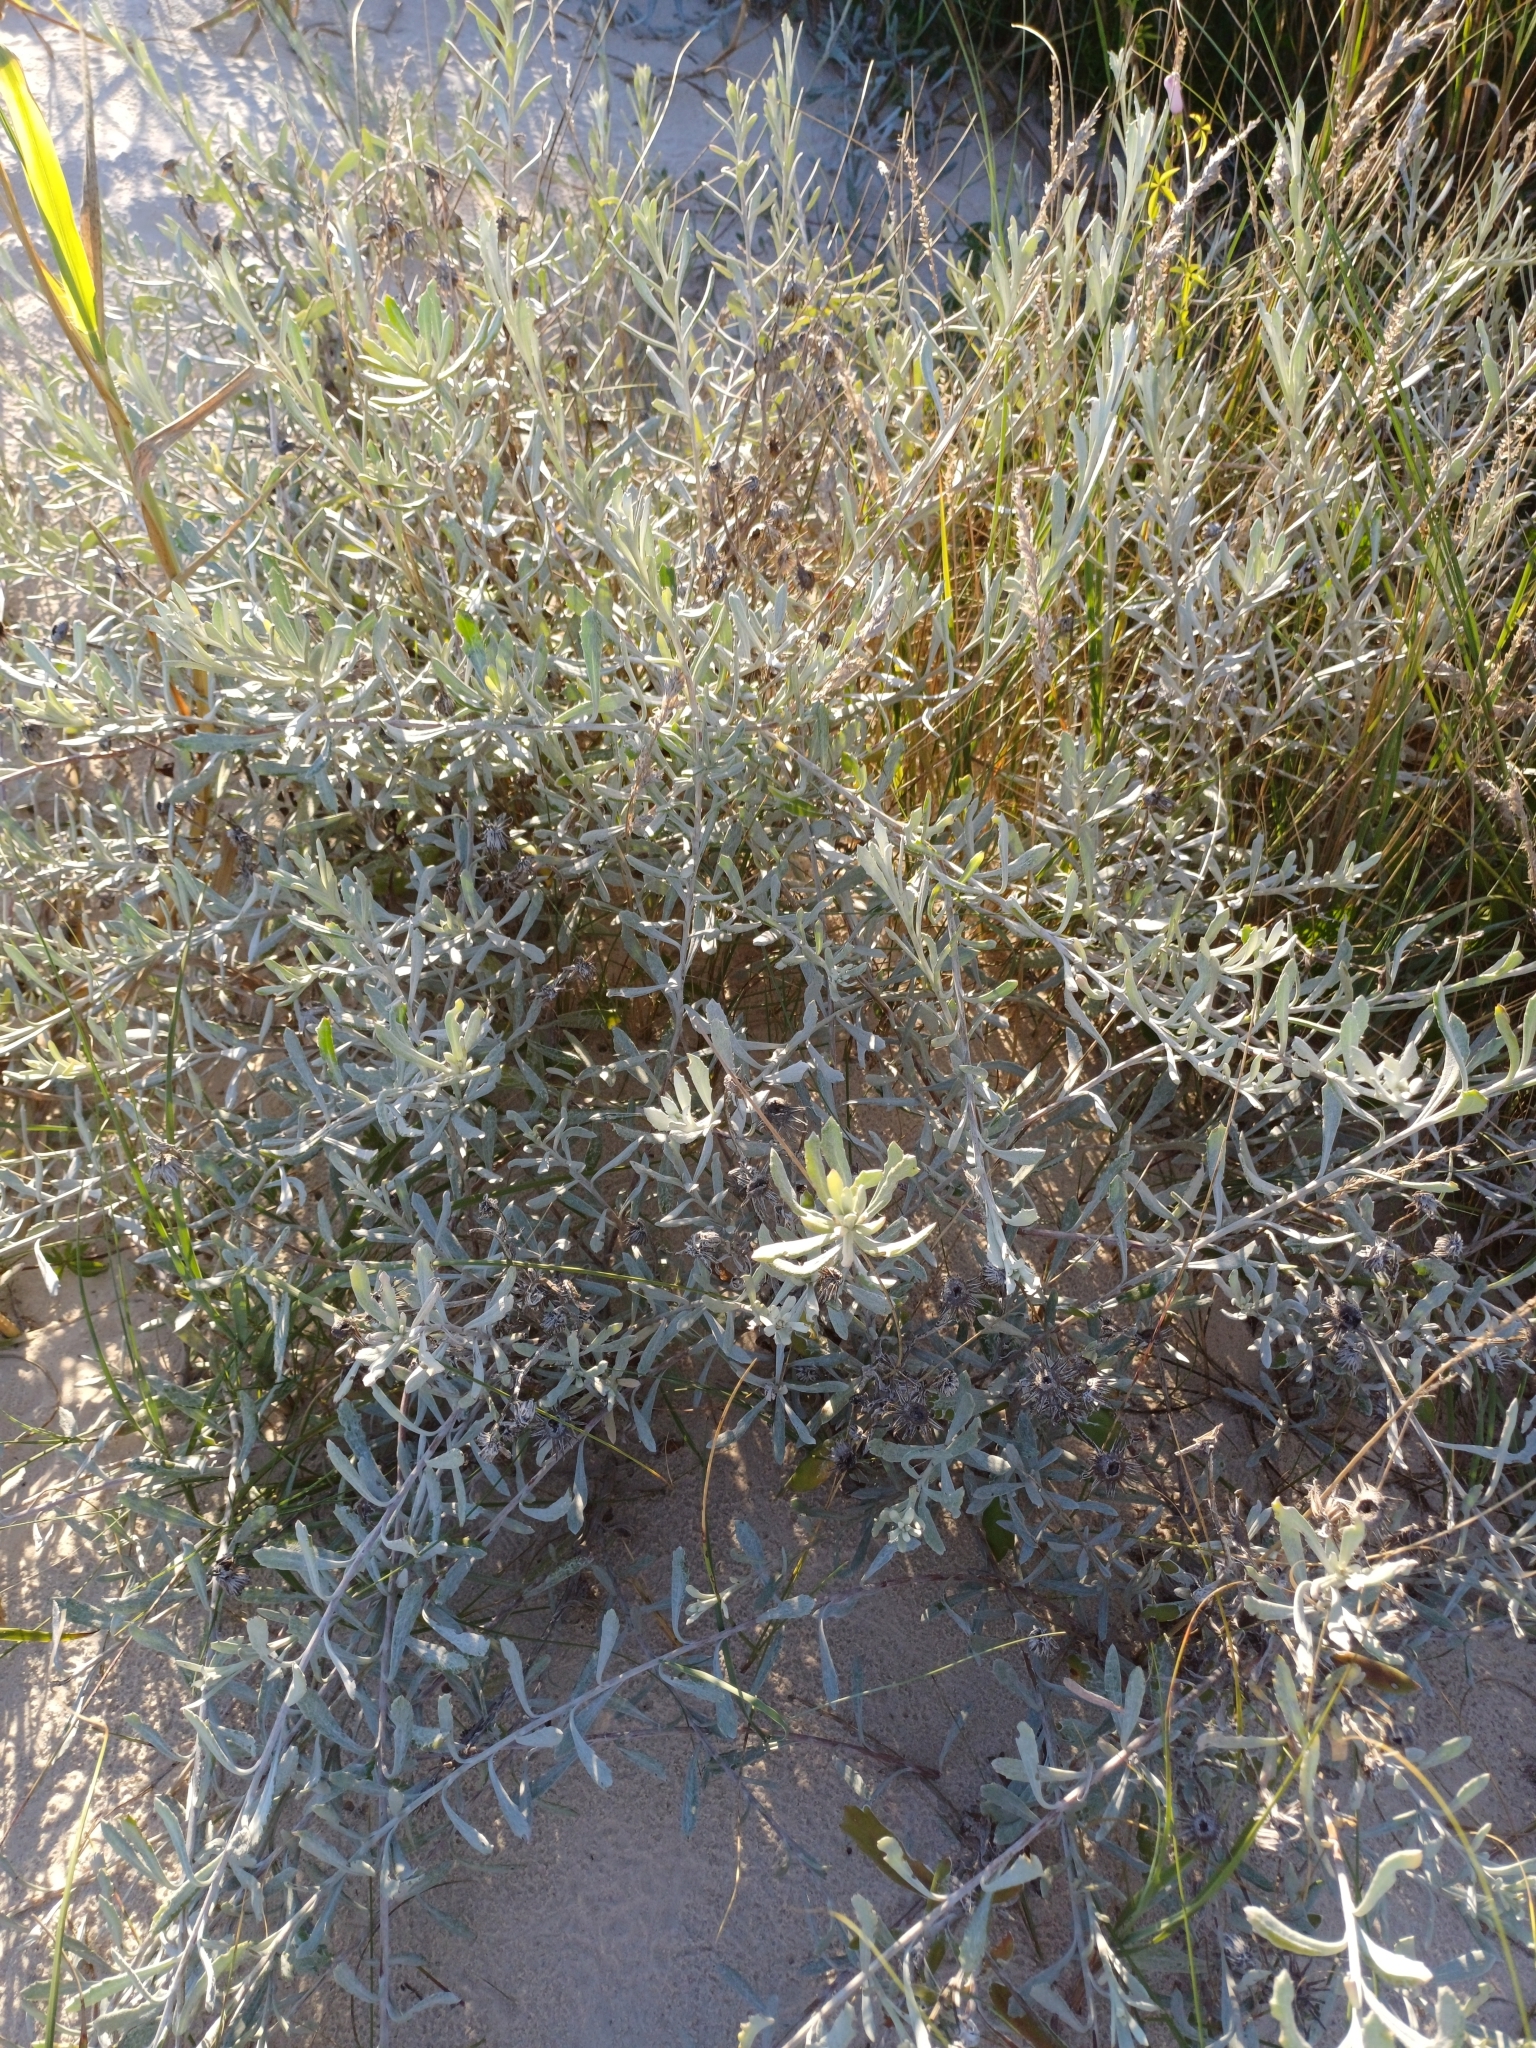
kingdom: Plantae
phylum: Tracheophyta
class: Magnoliopsida
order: Asterales
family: Asteraceae
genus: Senecio
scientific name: Senecio crassiflorus
